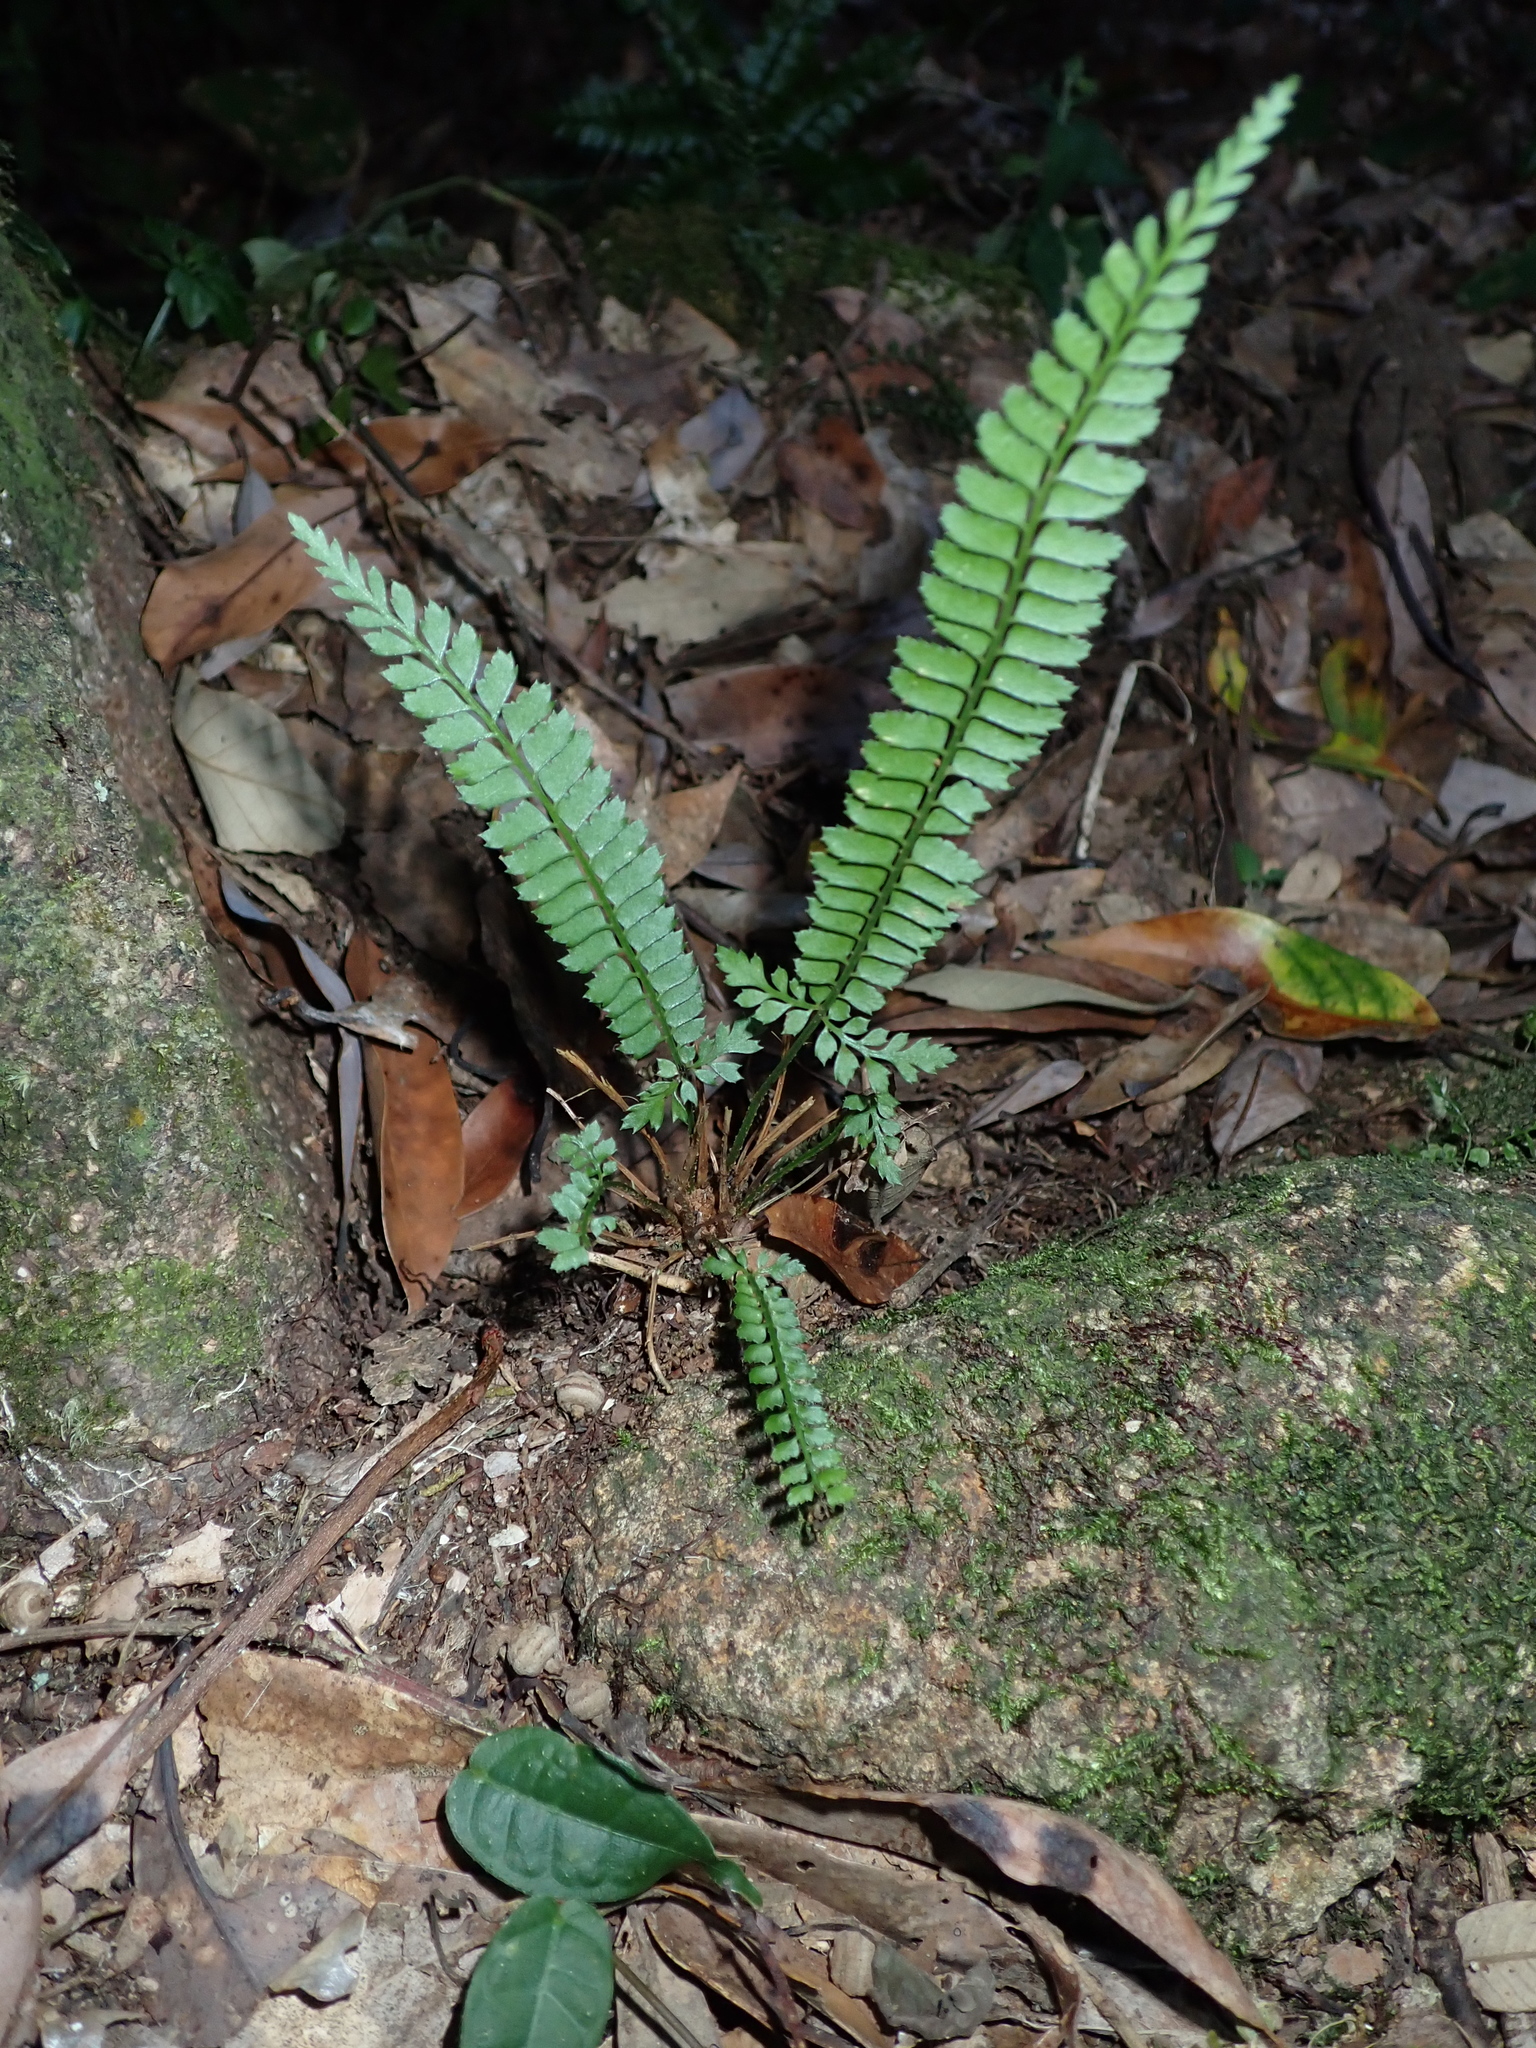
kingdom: Plantae
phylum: Tracheophyta
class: Polypodiopsida
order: Polypodiales
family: Dryopteridaceae
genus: Polystichum
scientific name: Polystichum hancockii
